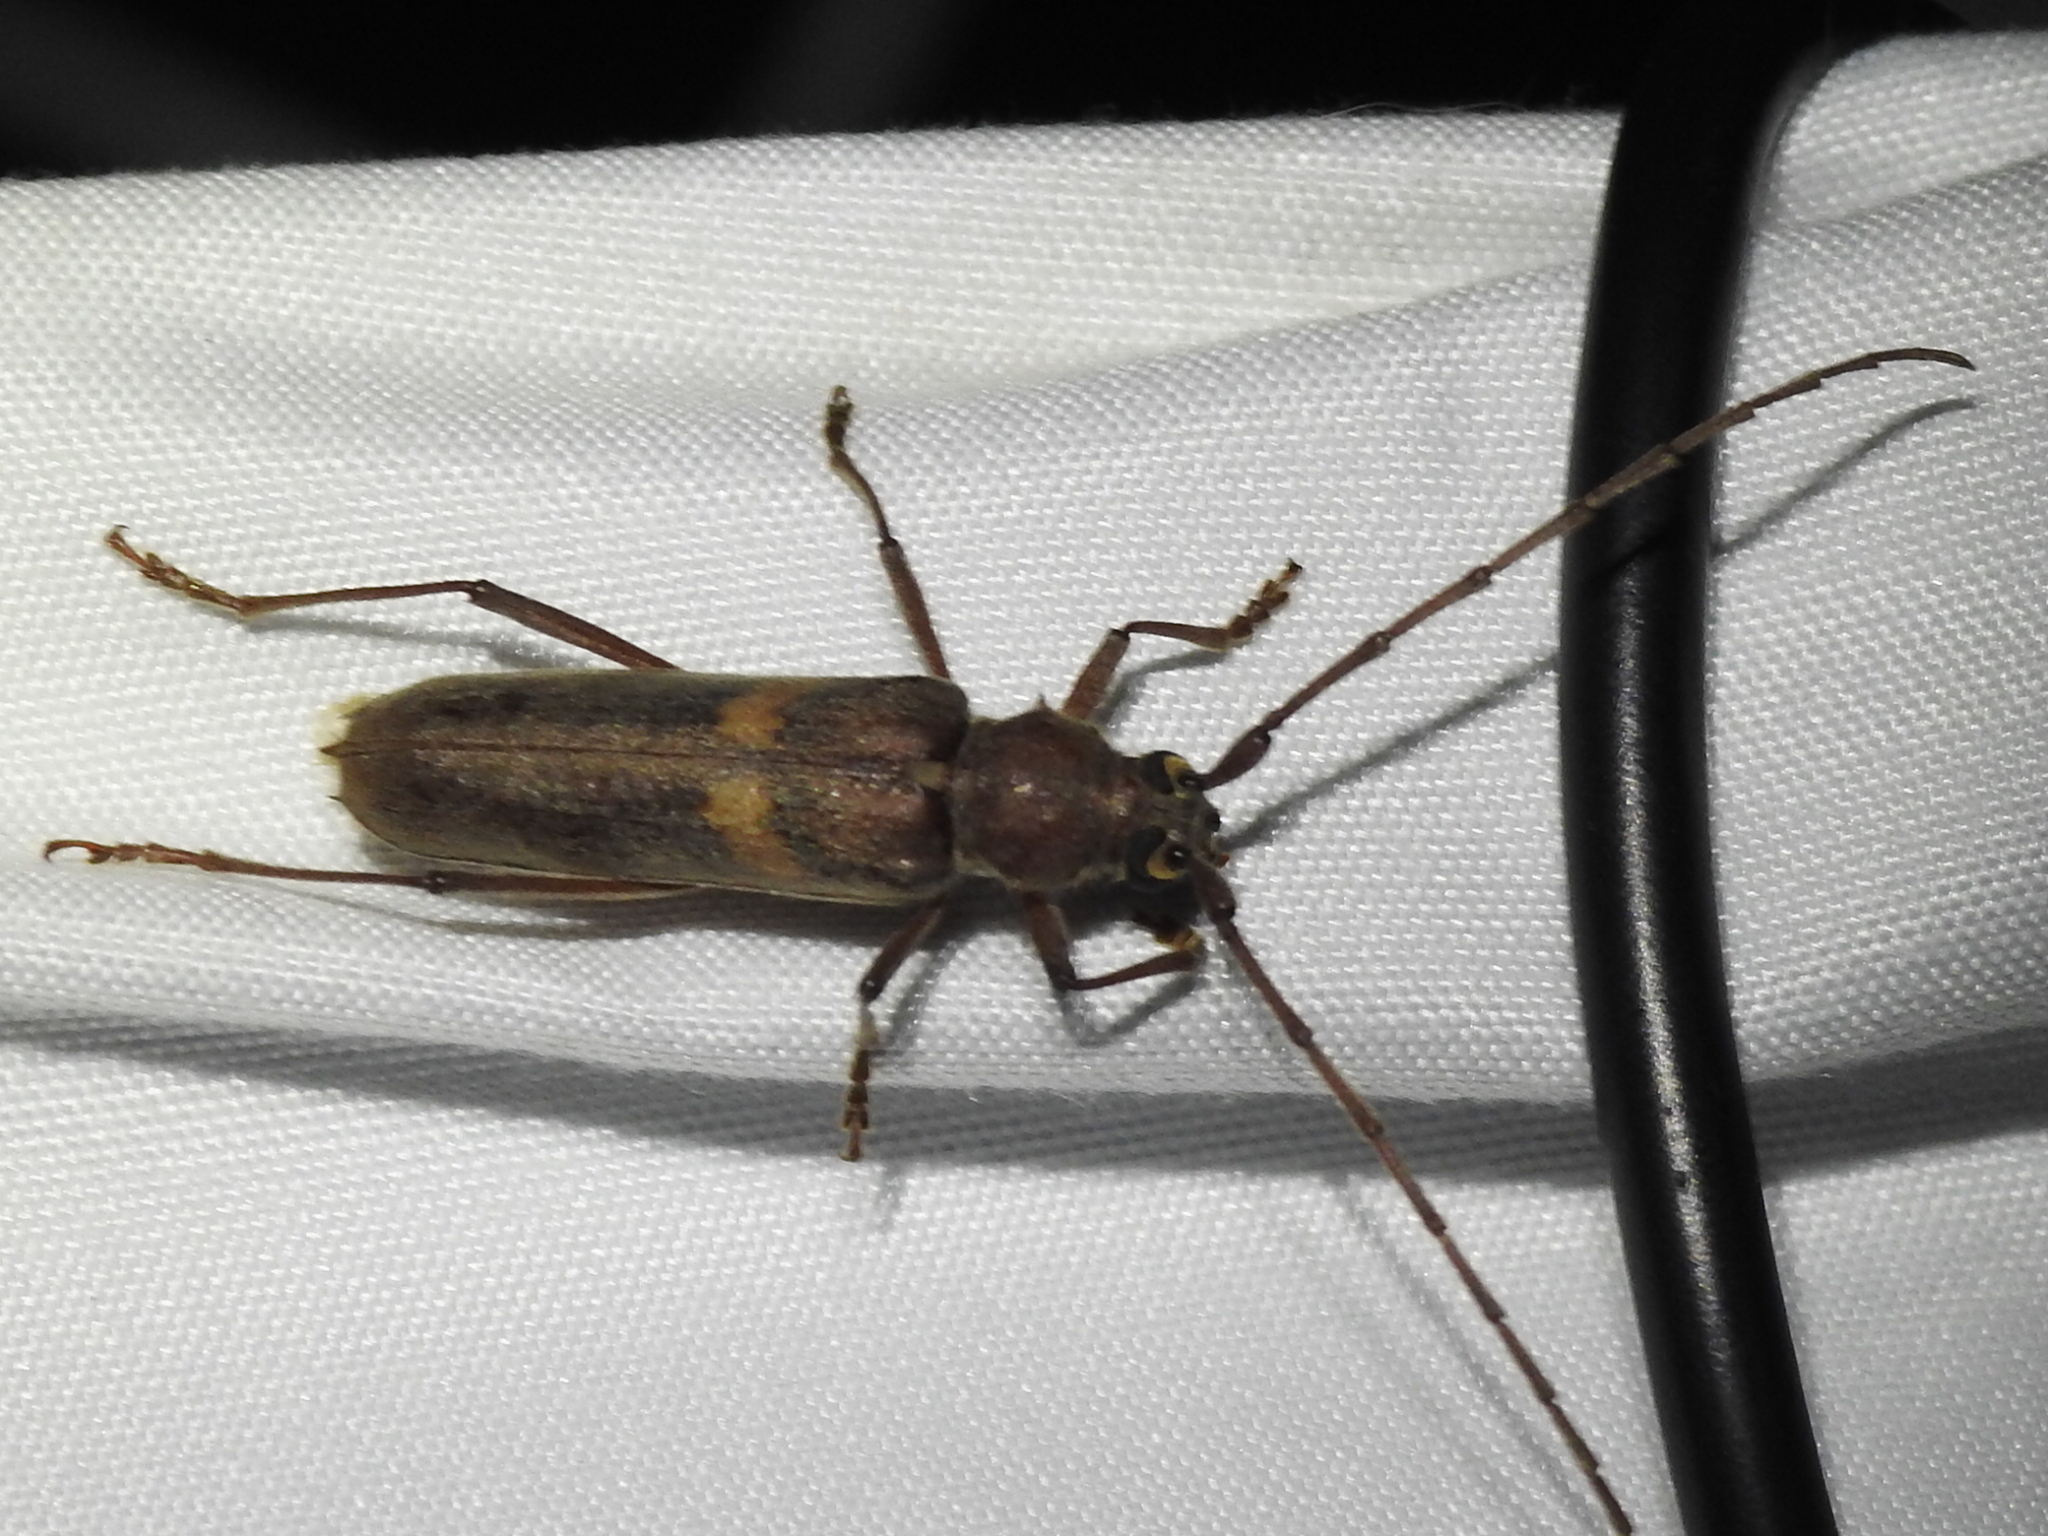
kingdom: Animalia
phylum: Arthropoda
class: Insecta
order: Coleoptera
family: Cerambycidae
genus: Knulliana
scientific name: Knulliana cincta
